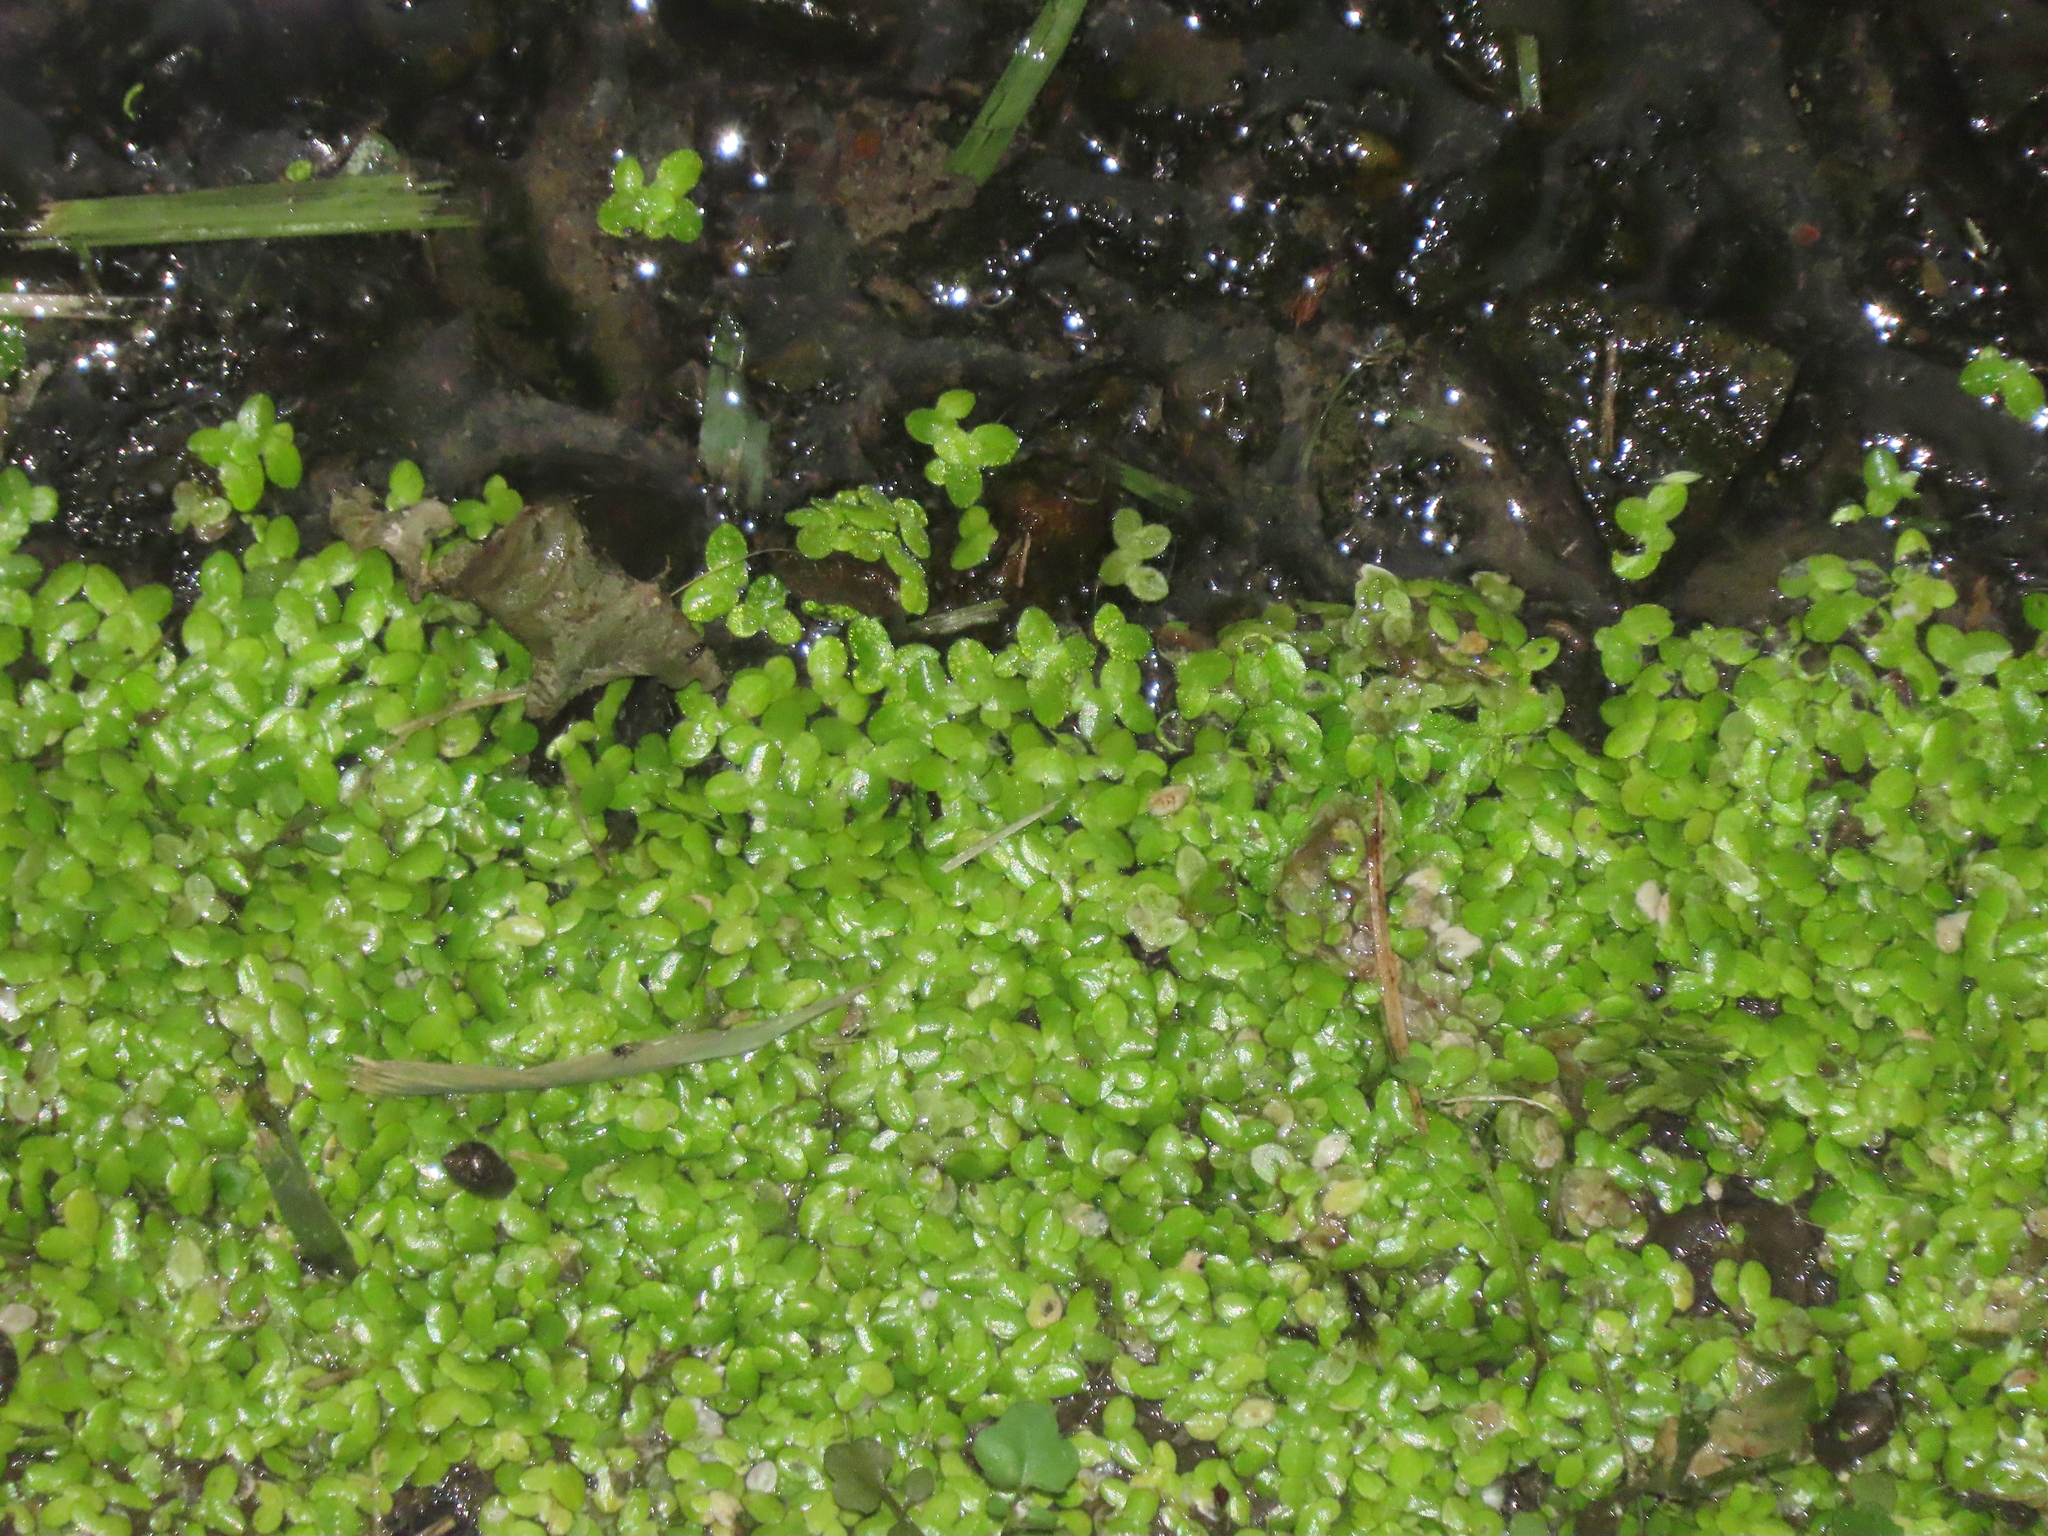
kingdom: Plantae
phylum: Tracheophyta
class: Liliopsida
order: Alismatales
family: Araceae
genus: Lemna
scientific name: Lemna aequinoctialis
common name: Duckweed
